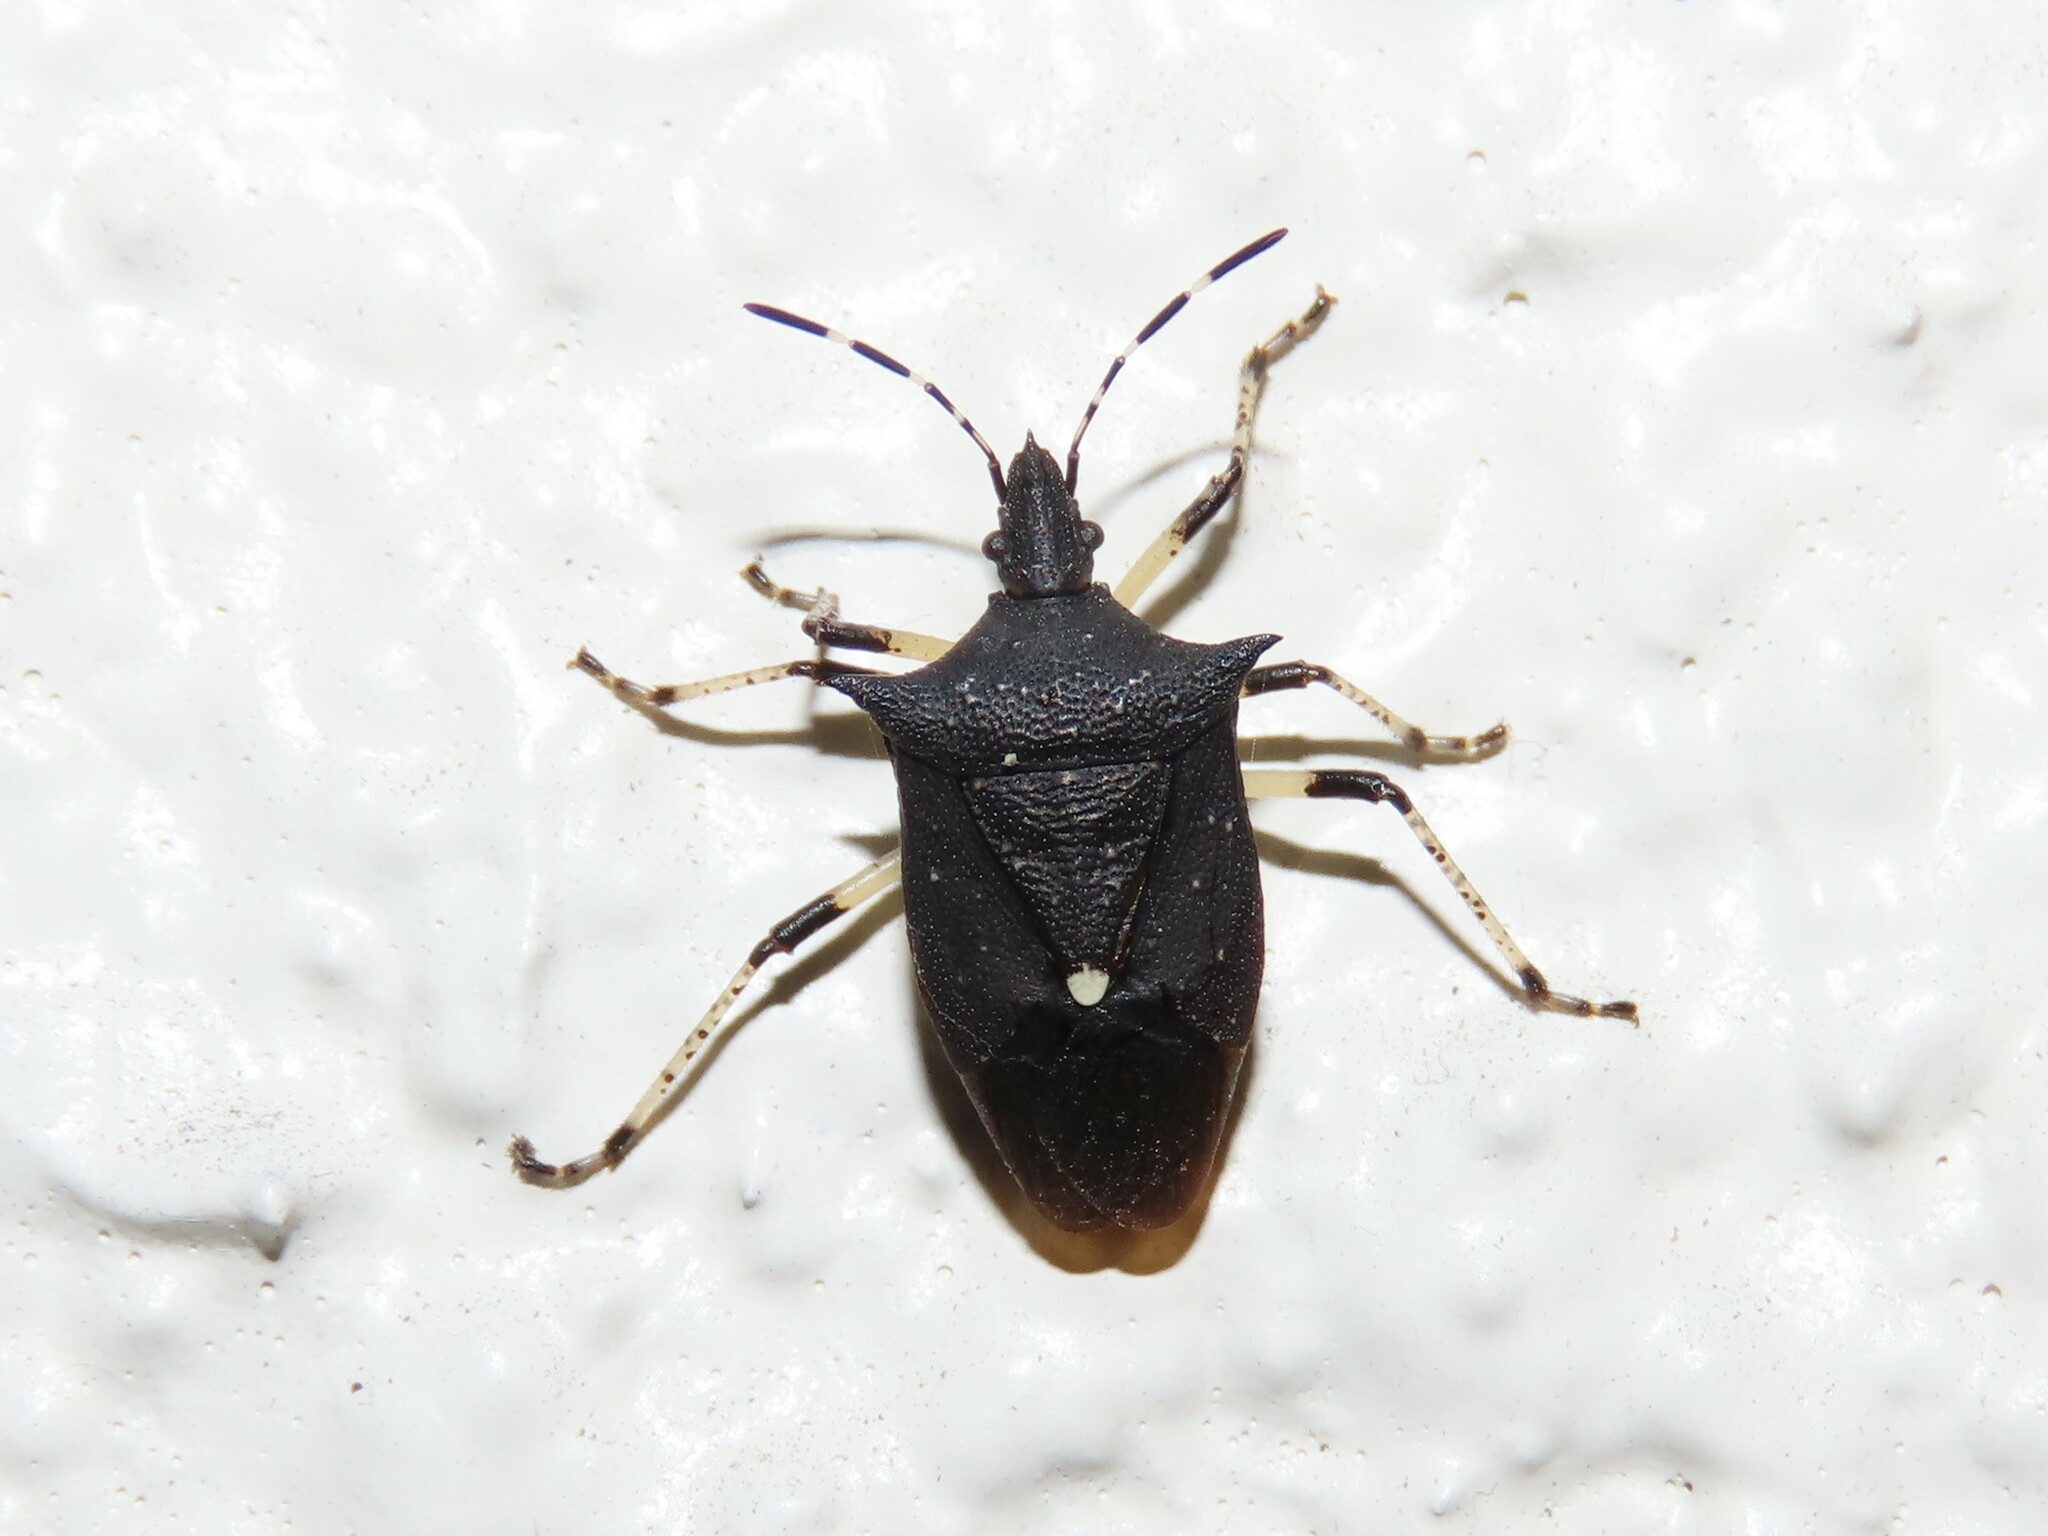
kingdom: Animalia
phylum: Arthropoda
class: Insecta
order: Hemiptera
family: Pentatomidae
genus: Proxys
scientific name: Proxys punctulatus
